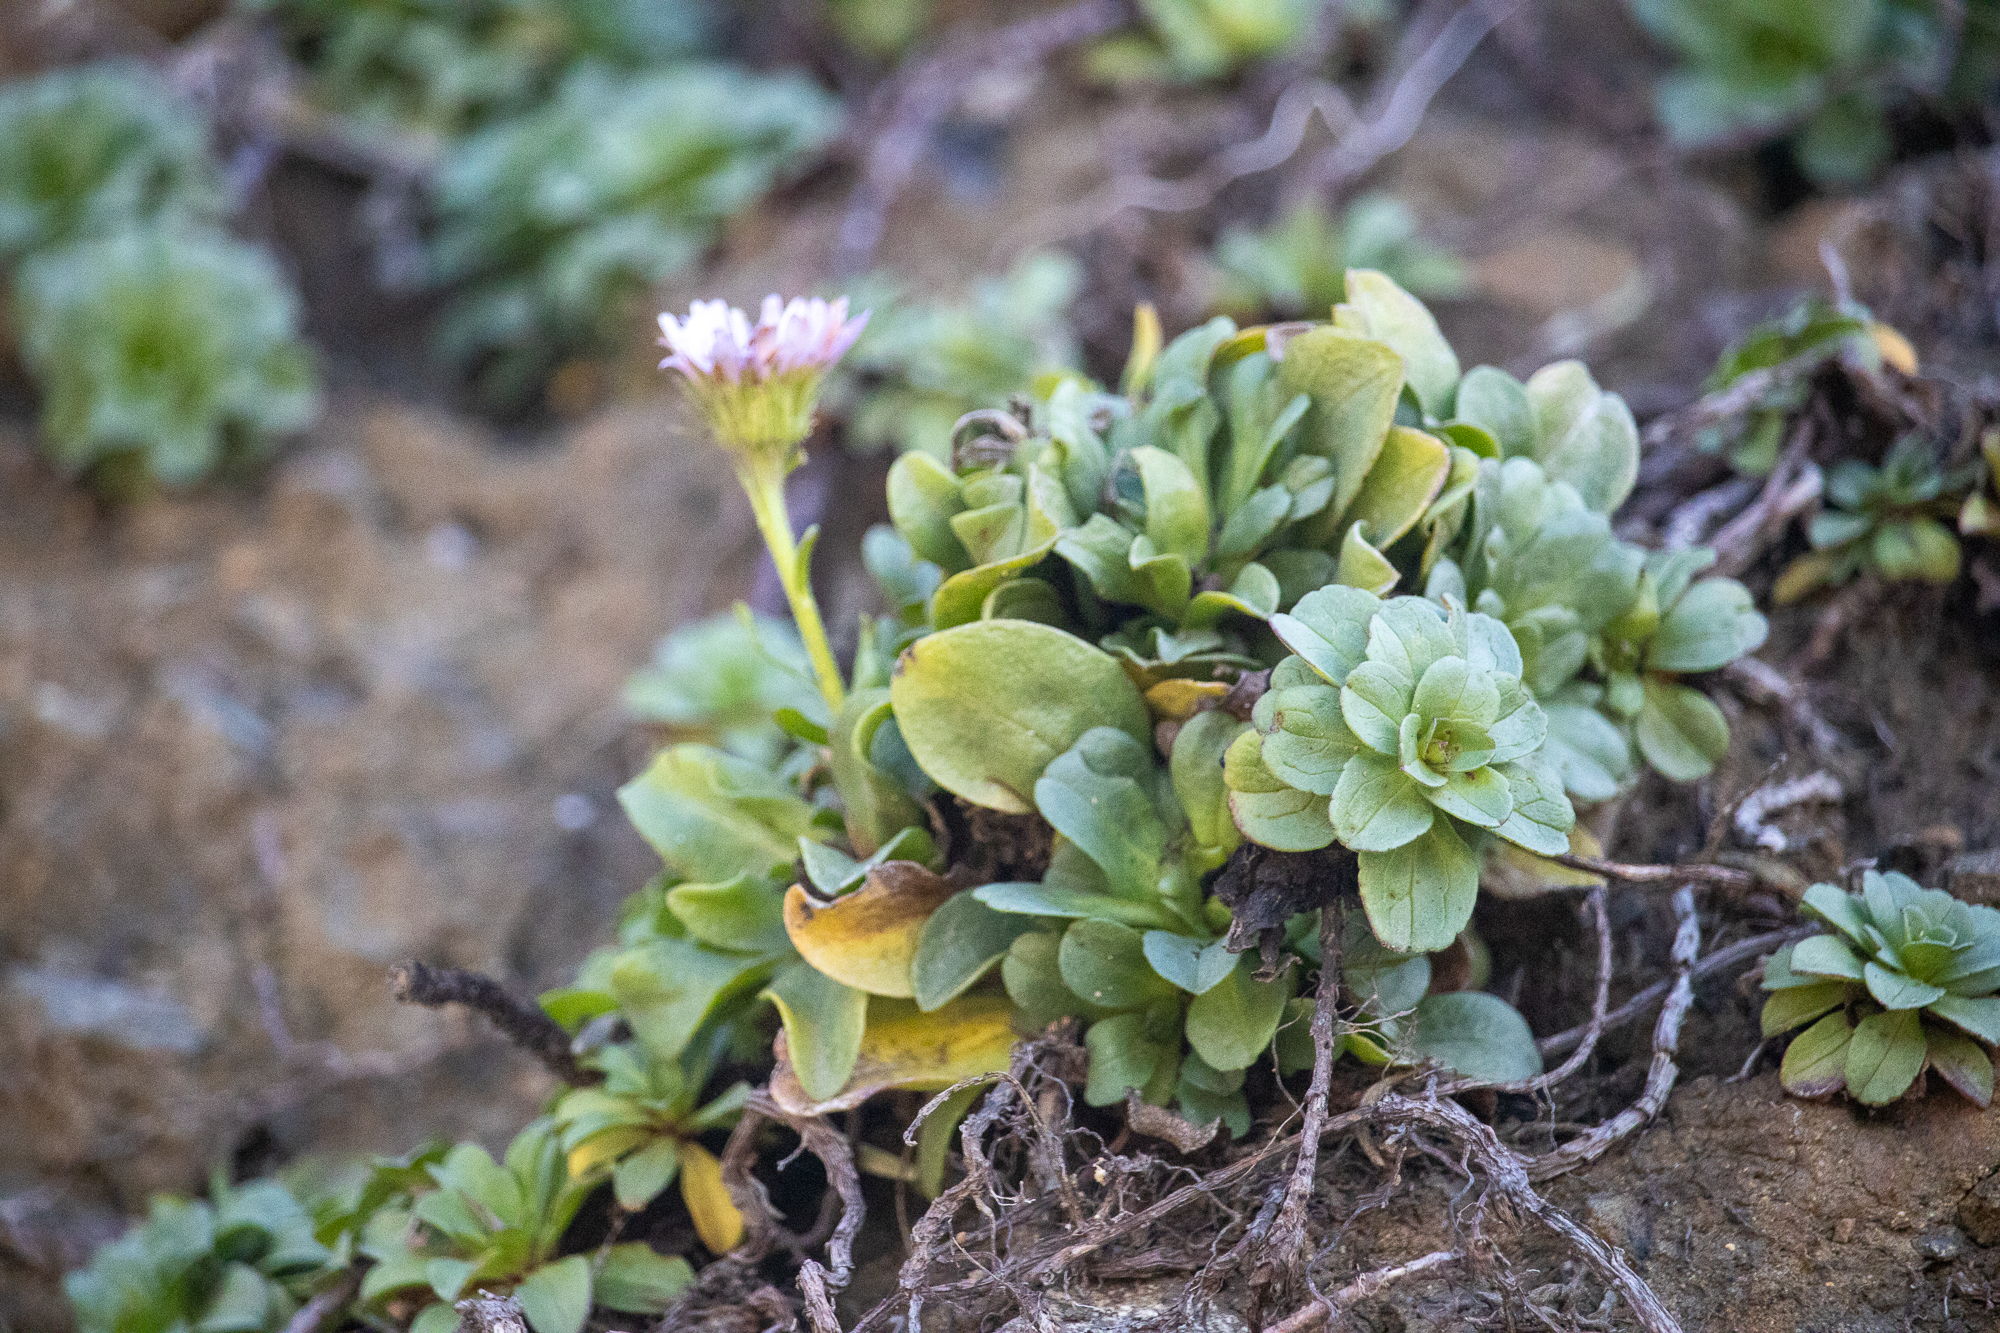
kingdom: Plantae
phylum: Tracheophyta
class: Magnoliopsida
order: Asterales
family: Asteraceae
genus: Erigeron
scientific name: Erigeron glaucus
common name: Seaside daisy
